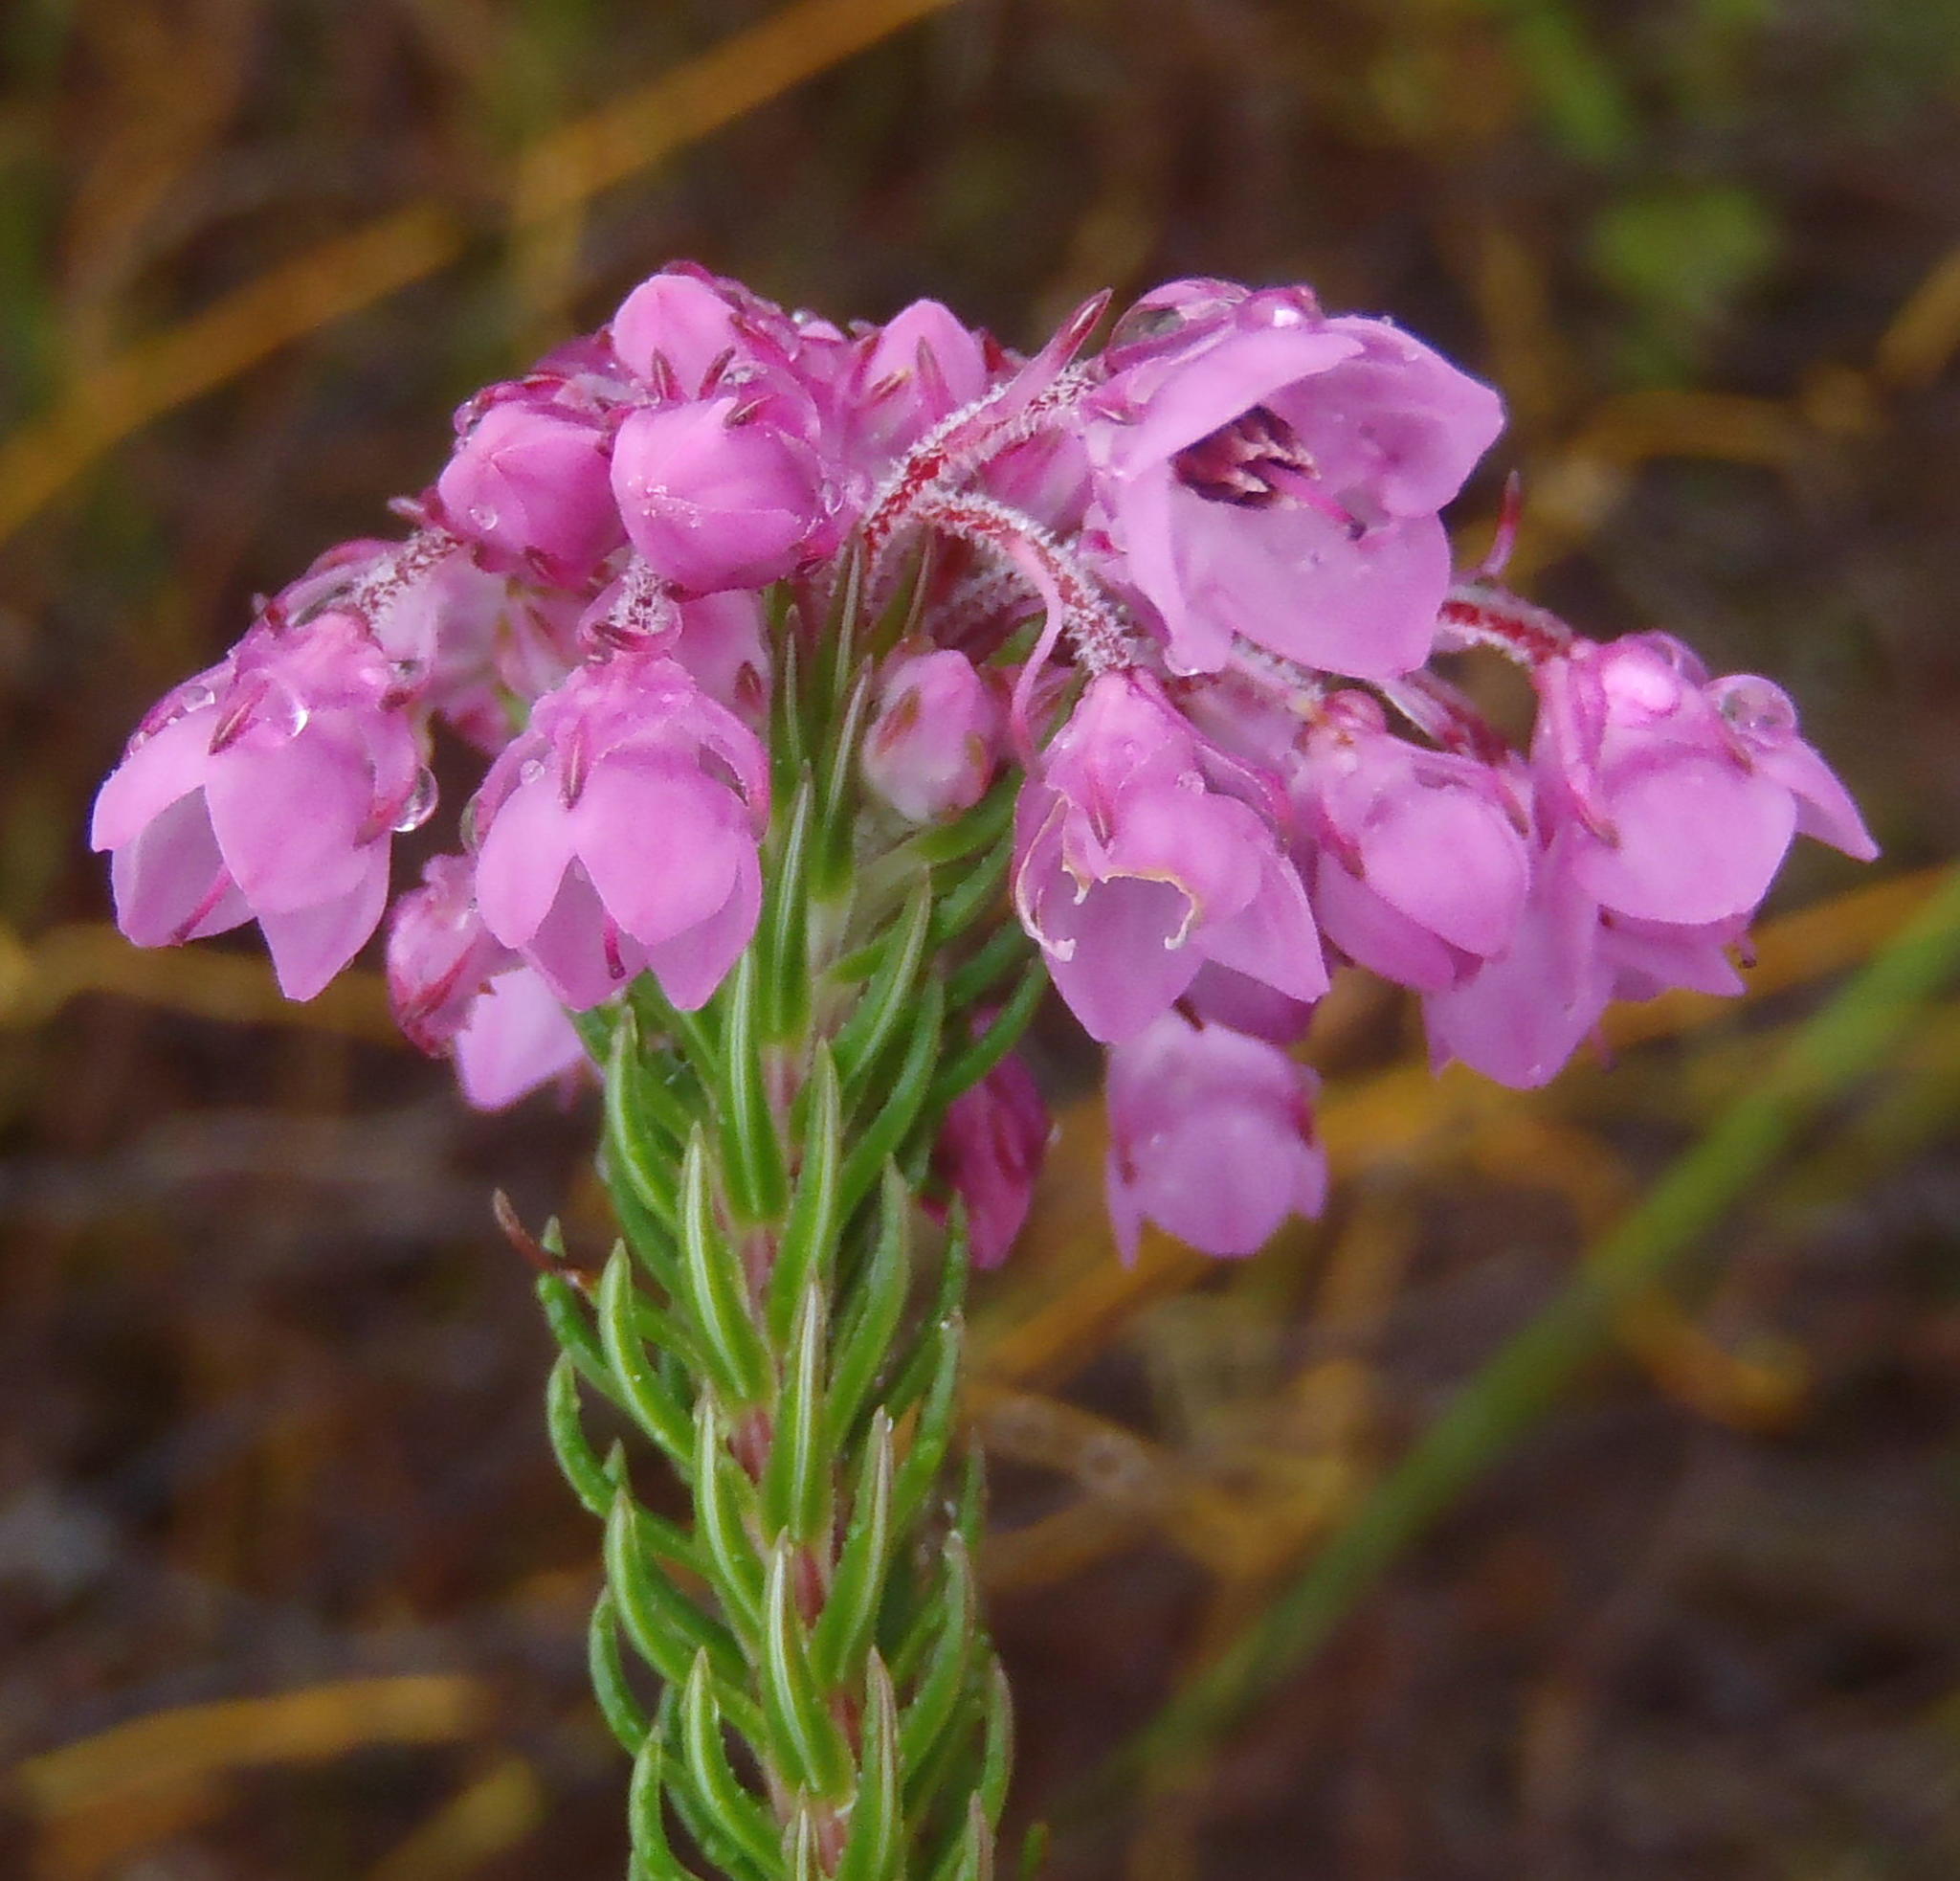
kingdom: Plantae
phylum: Tracheophyta
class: Magnoliopsida
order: Ericales
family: Ericaceae
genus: Erica
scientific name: Erica seriphiifolia
